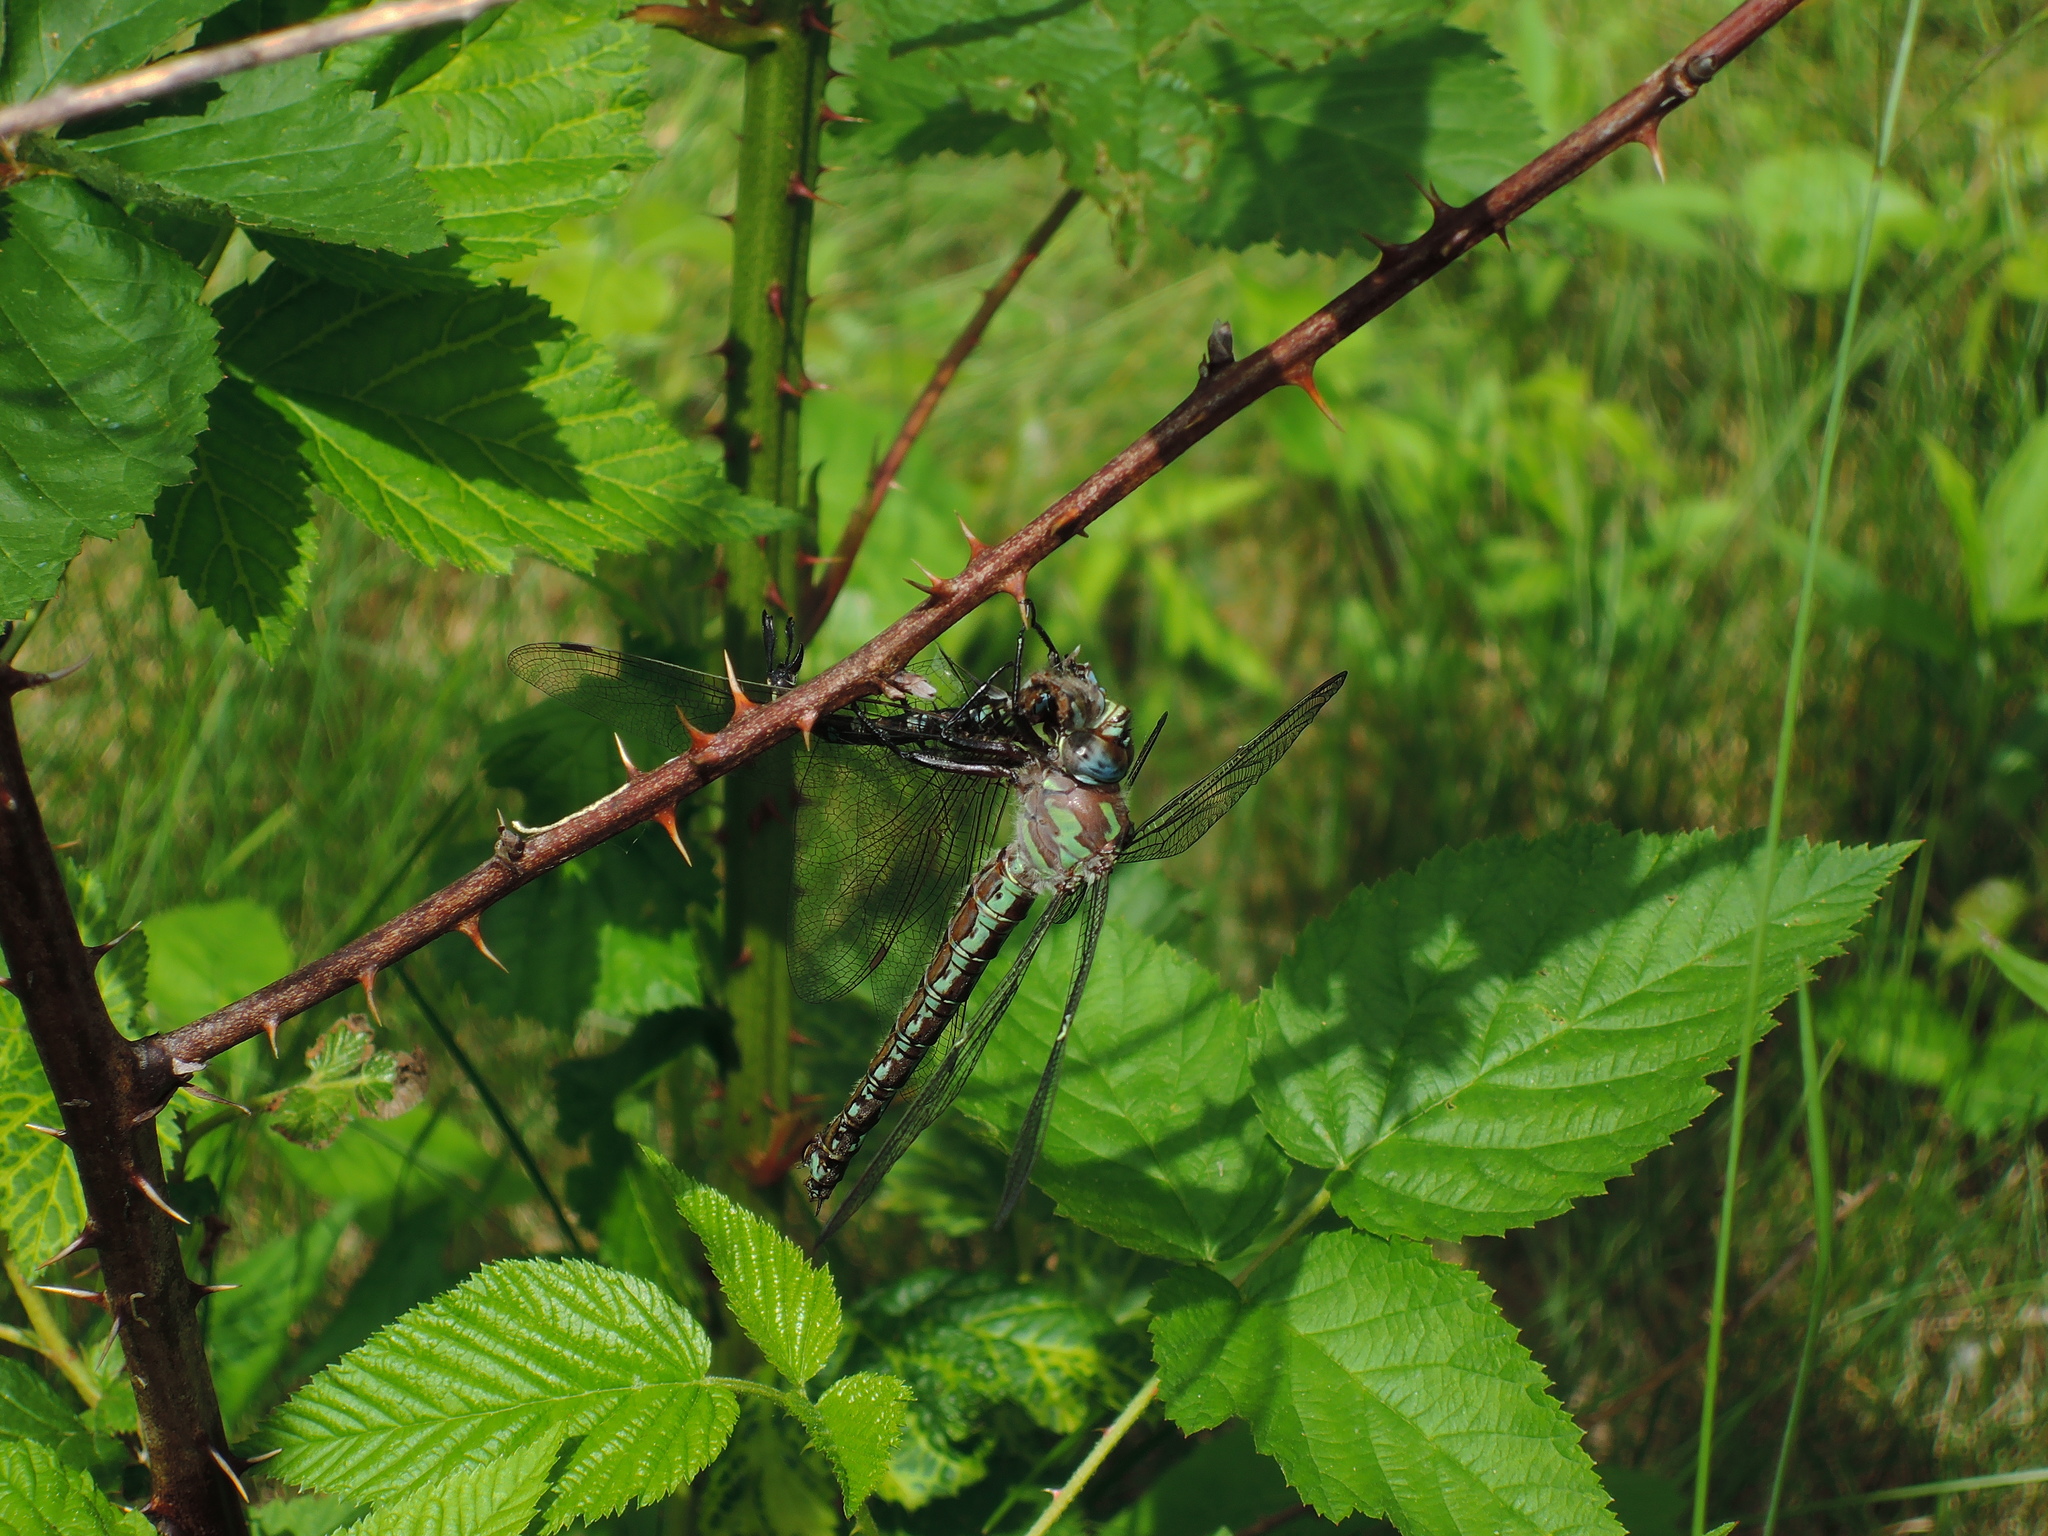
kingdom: Animalia
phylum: Arthropoda
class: Insecta
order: Odonata
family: Aeshnidae
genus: Nasiaeschna
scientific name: Nasiaeschna pentacantha
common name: Cyrano darner
